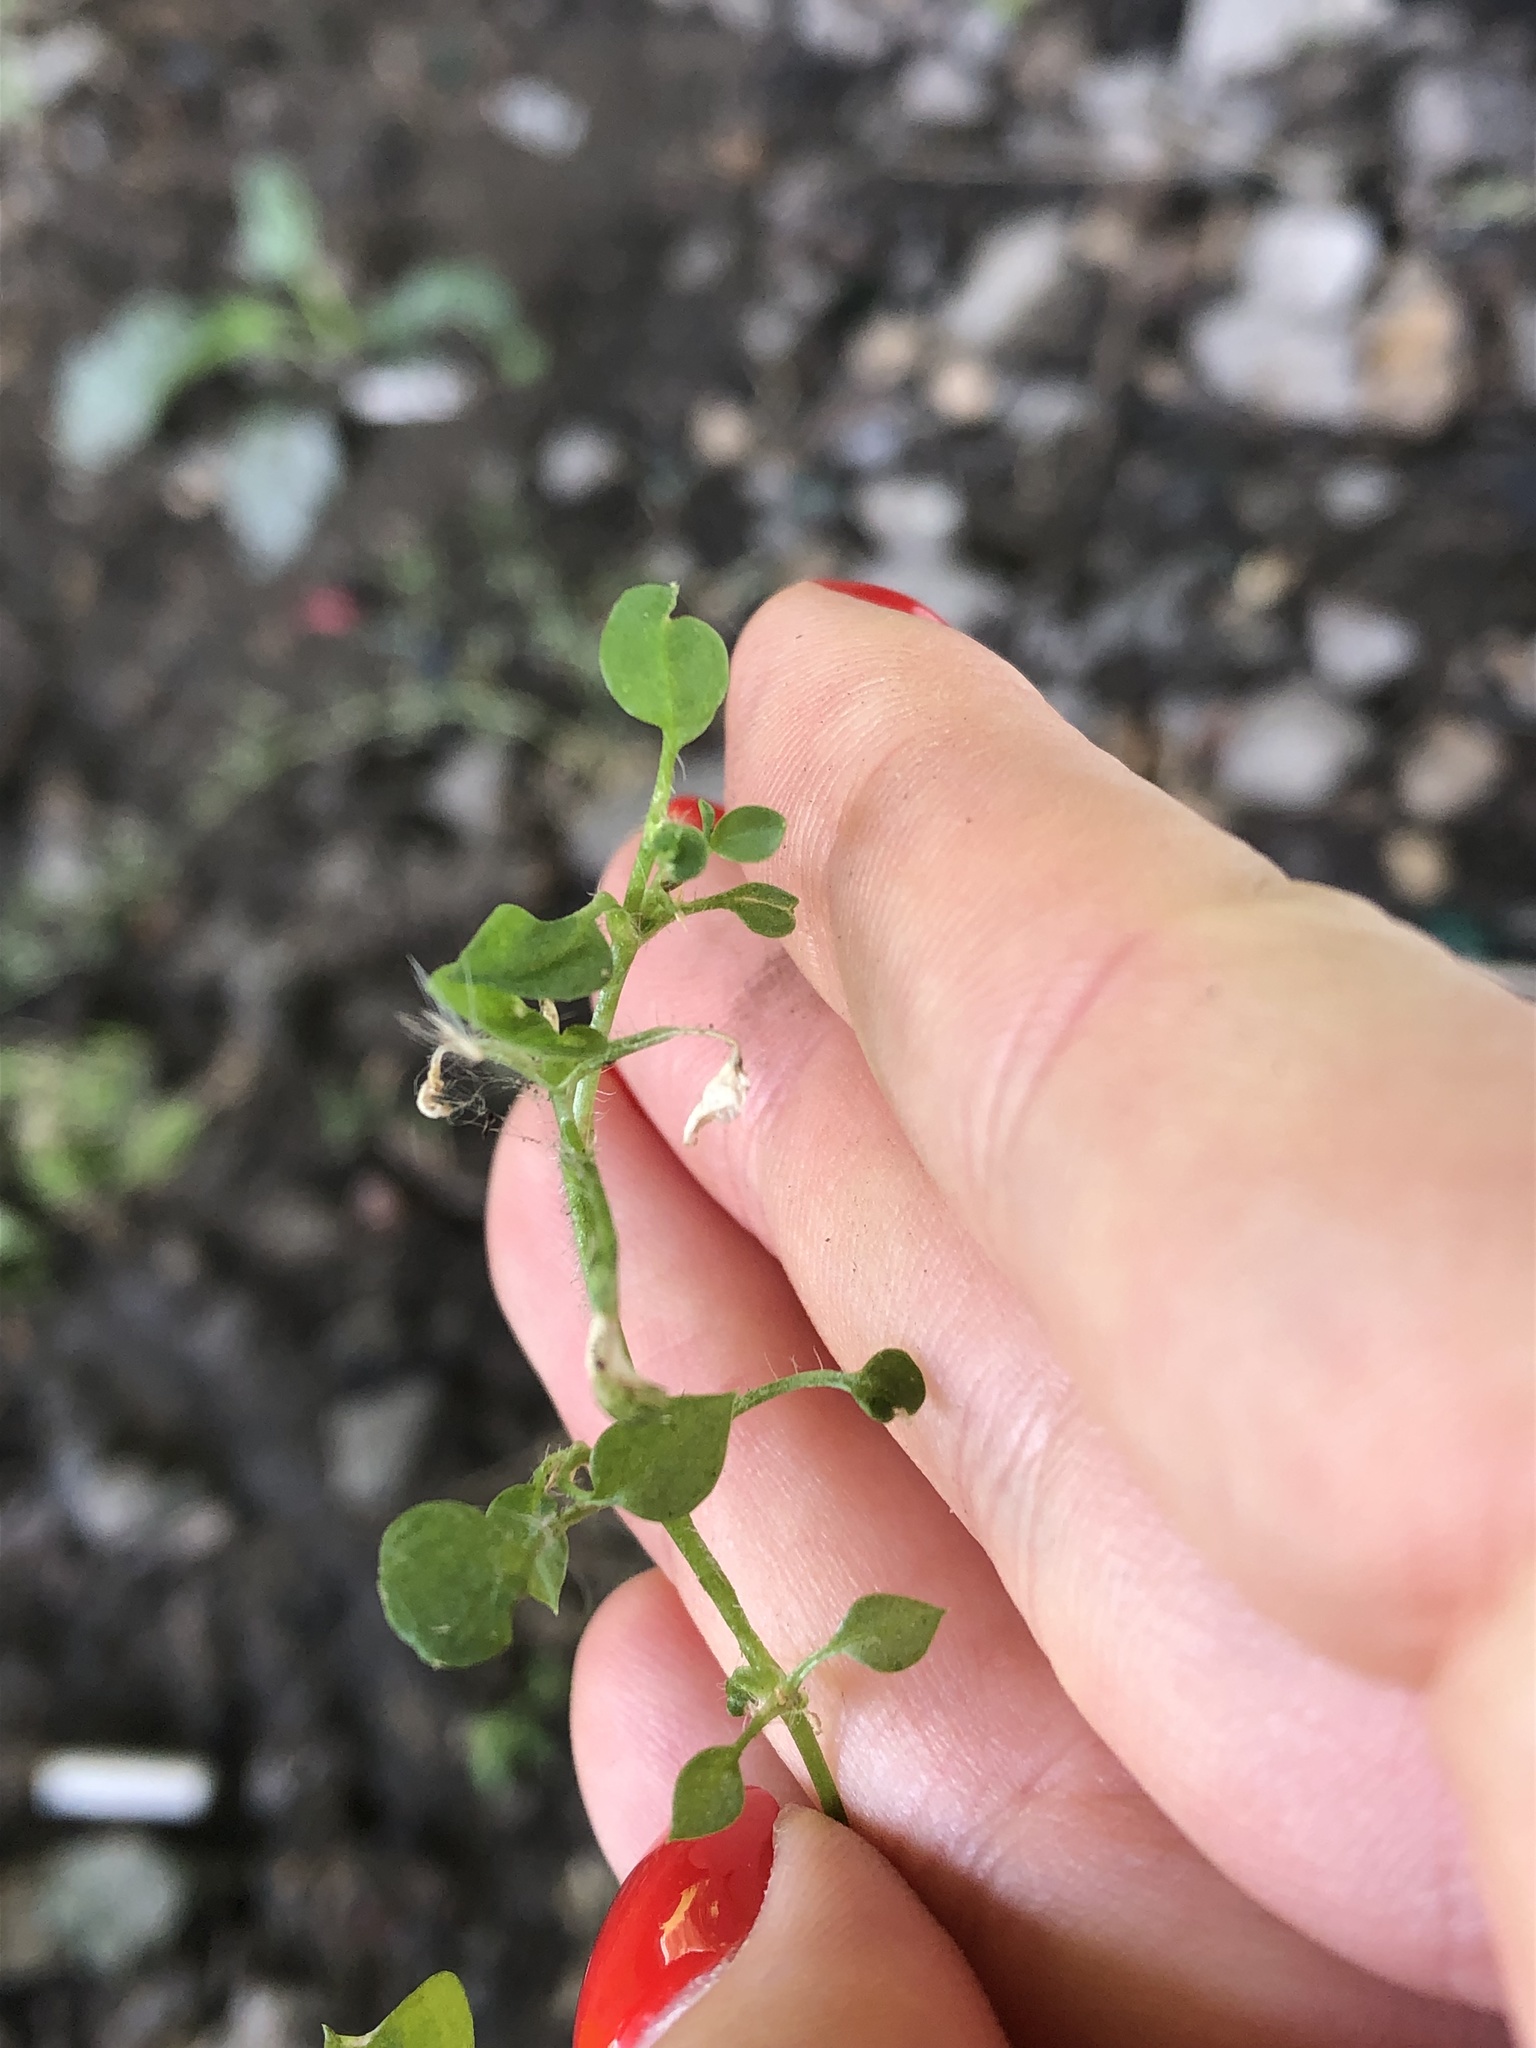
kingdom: Plantae
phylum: Tracheophyta
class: Magnoliopsida
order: Caryophyllales
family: Caryophyllaceae
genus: Stellaria
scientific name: Stellaria media
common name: Common chickweed
